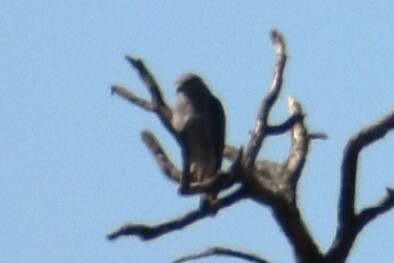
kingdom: Animalia
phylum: Chordata
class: Aves
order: Accipitriformes
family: Accipitridae
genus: Buteo
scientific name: Buteo nitidus
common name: Grey-lined hawk
